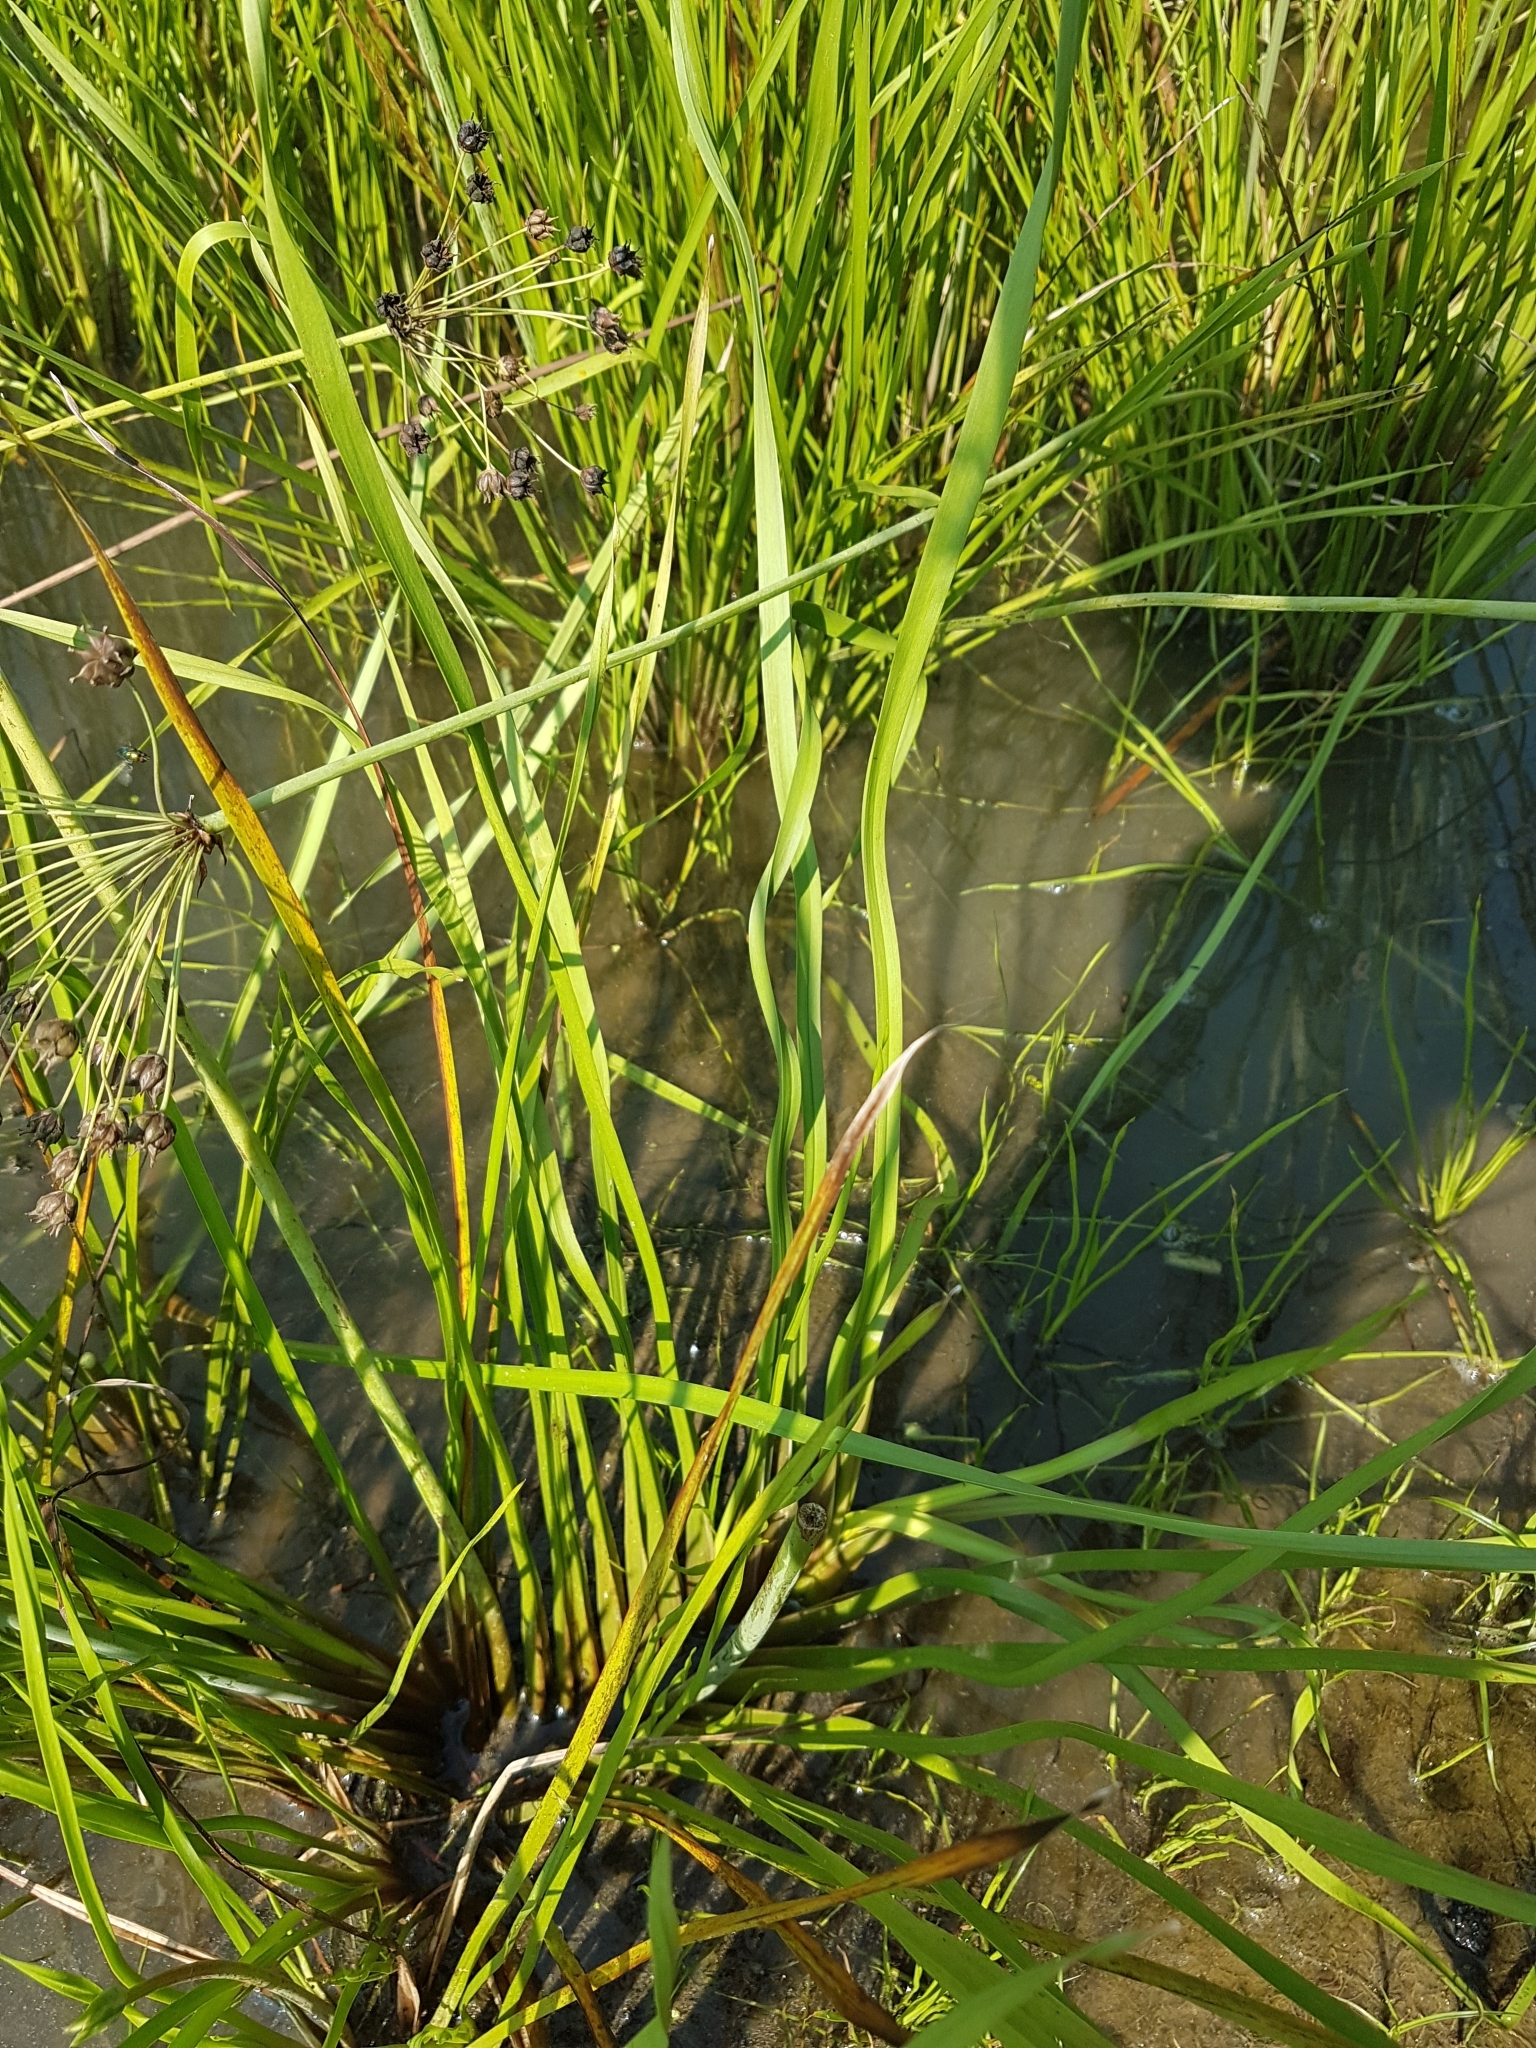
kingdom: Plantae
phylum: Tracheophyta
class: Liliopsida
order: Alismatales
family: Butomaceae
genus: Butomus
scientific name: Butomus umbellatus
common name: Flowering-rush
